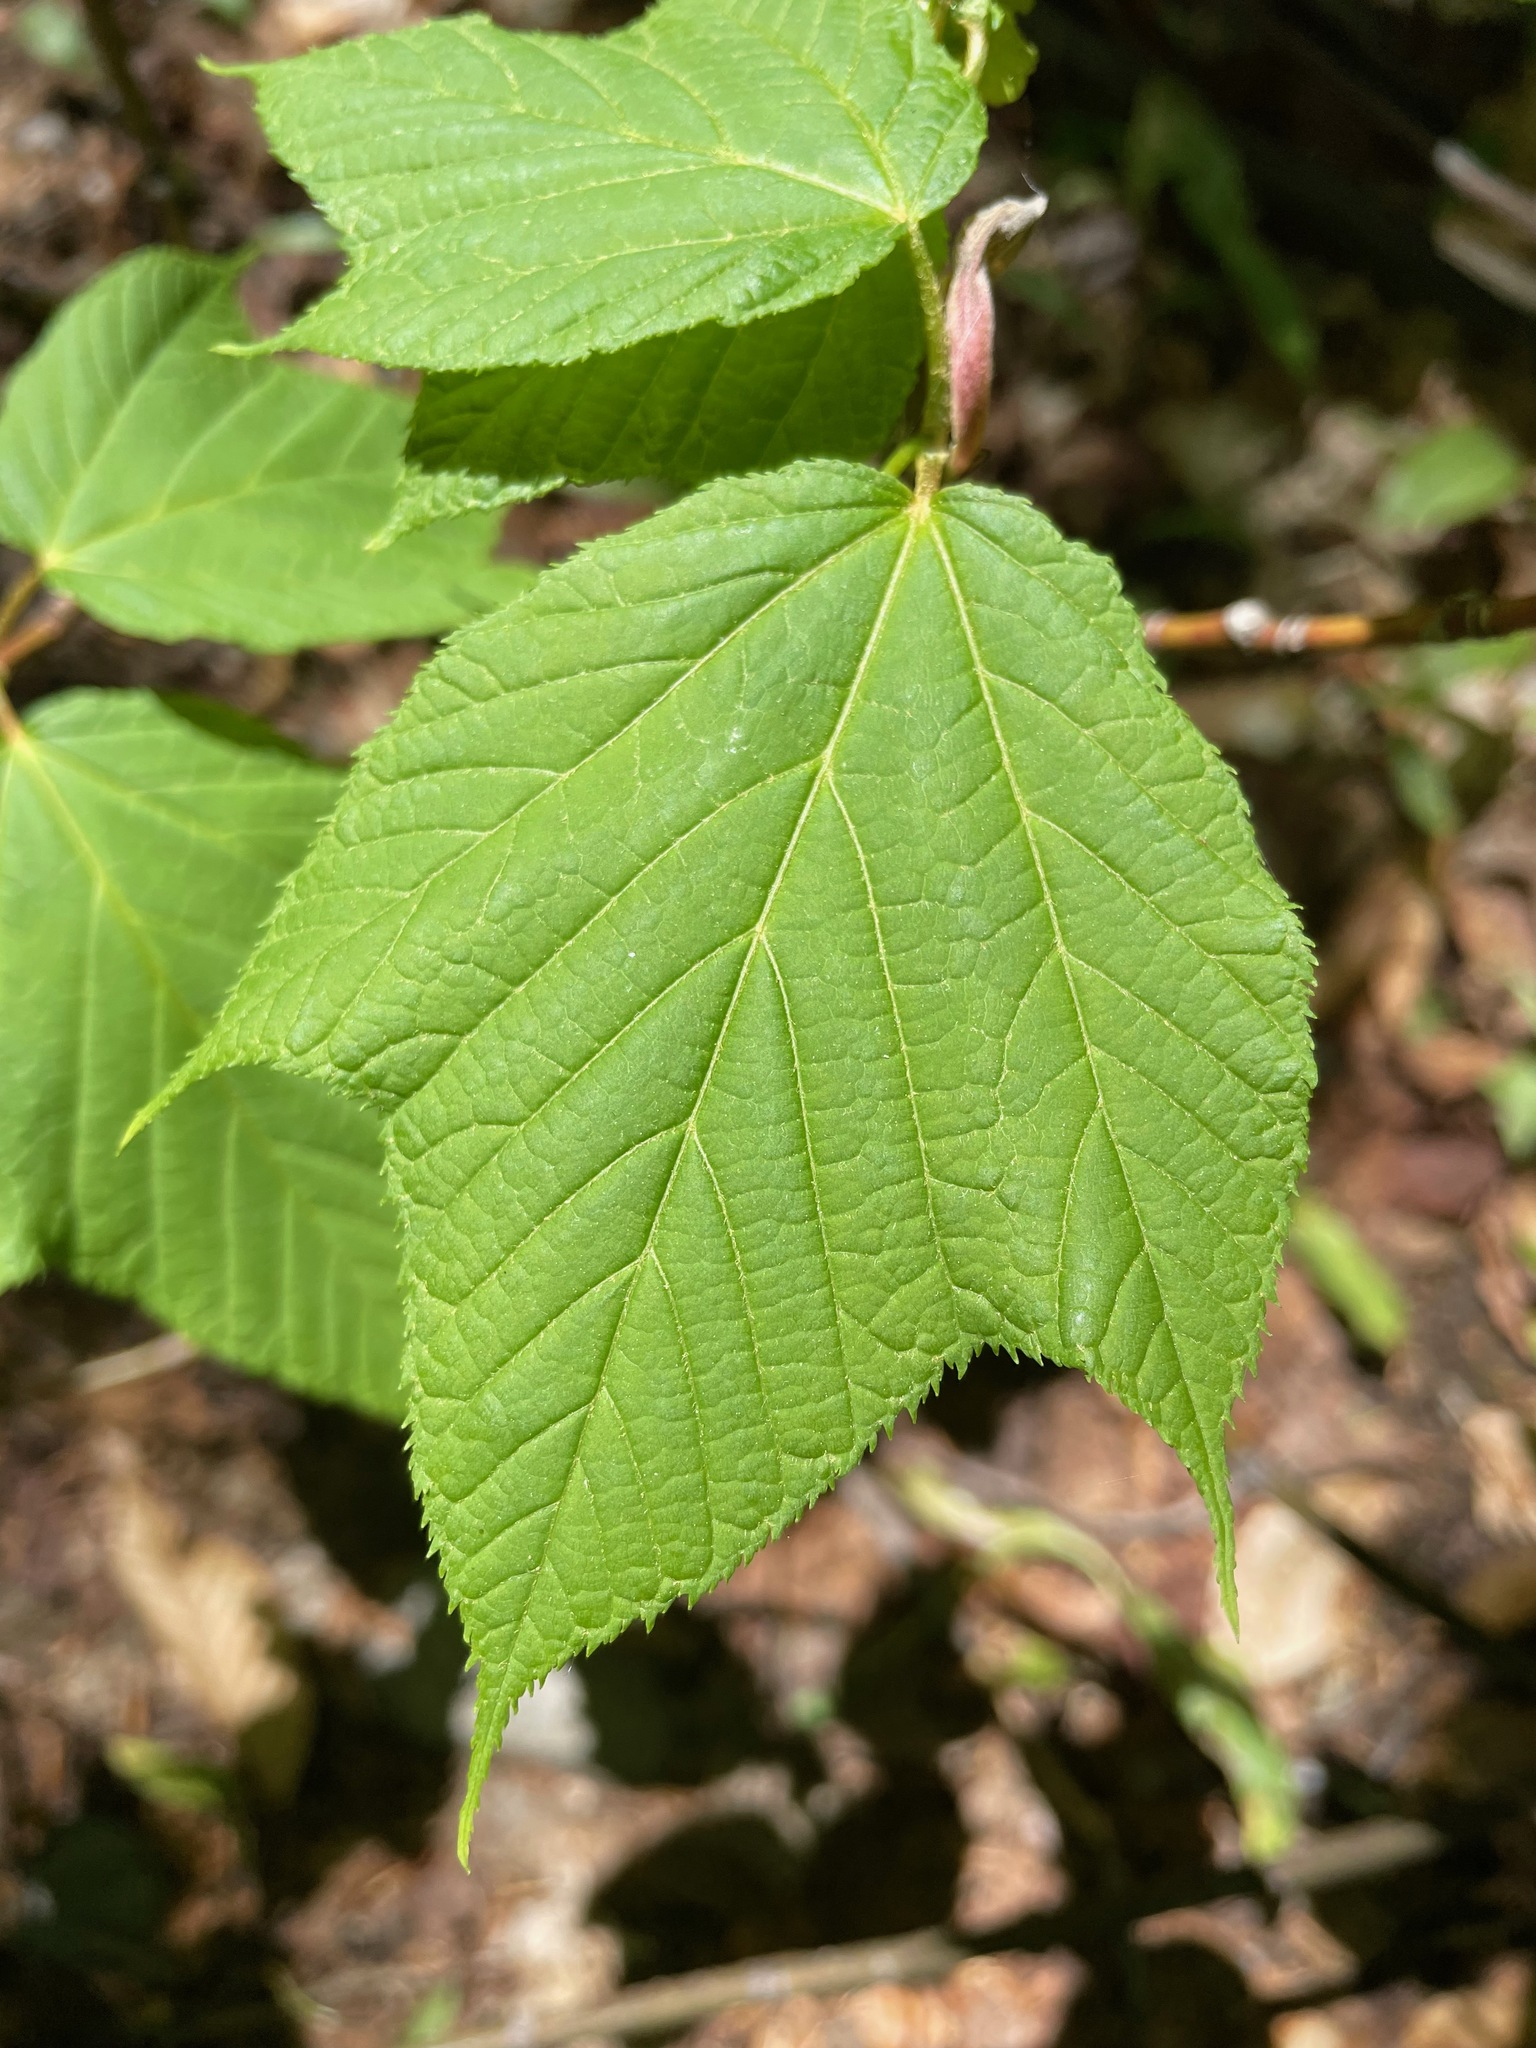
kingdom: Plantae
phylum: Tracheophyta
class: Magnoliopsida
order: Sapindales
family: Sapindaceae
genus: Acer
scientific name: Acer pensylvanicum
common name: Moosewood
